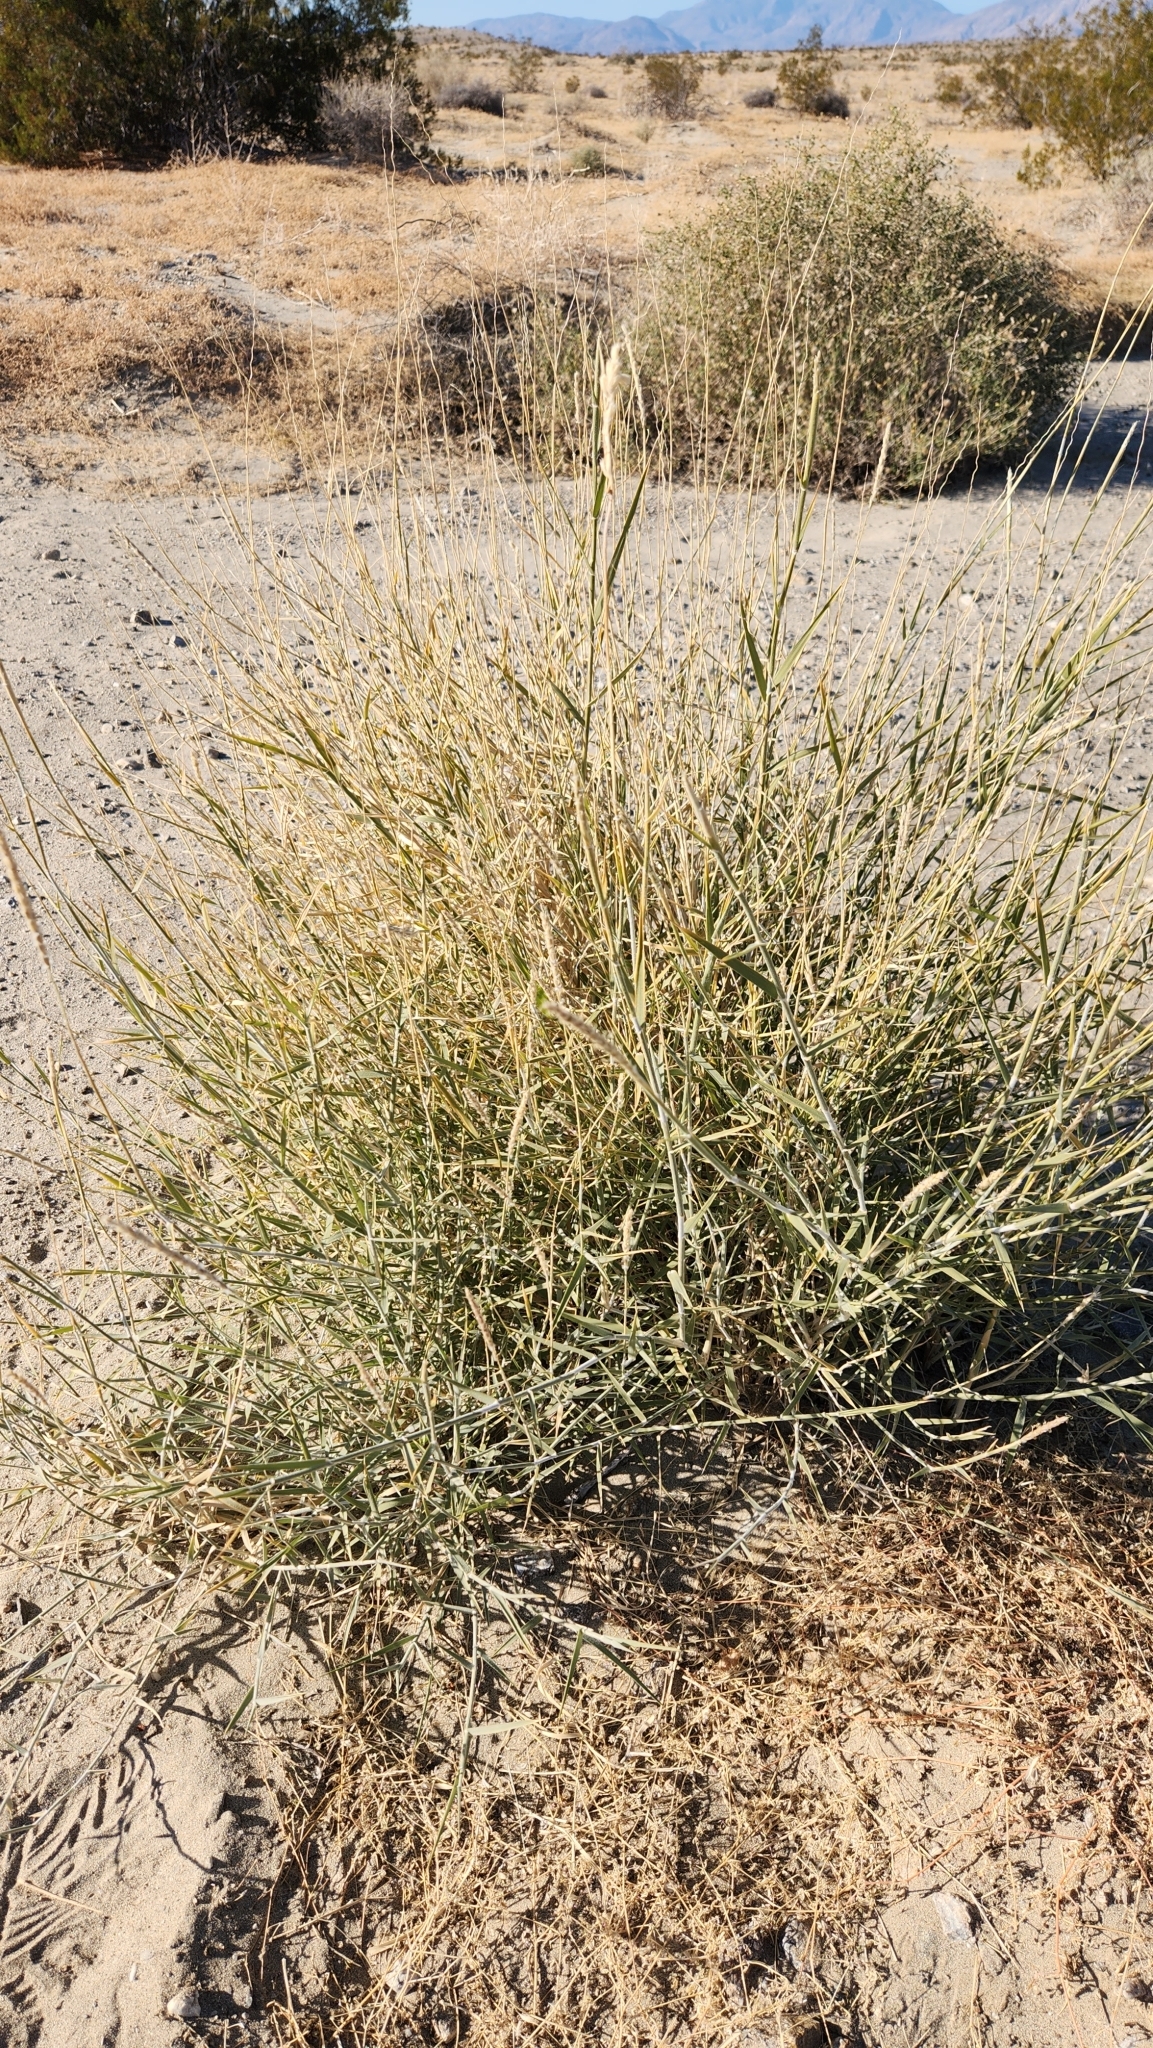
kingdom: Plantae
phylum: Tracheophyta
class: Liliopsida
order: Poales
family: Poaceae
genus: Hilaria
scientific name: Hilaria rigida
